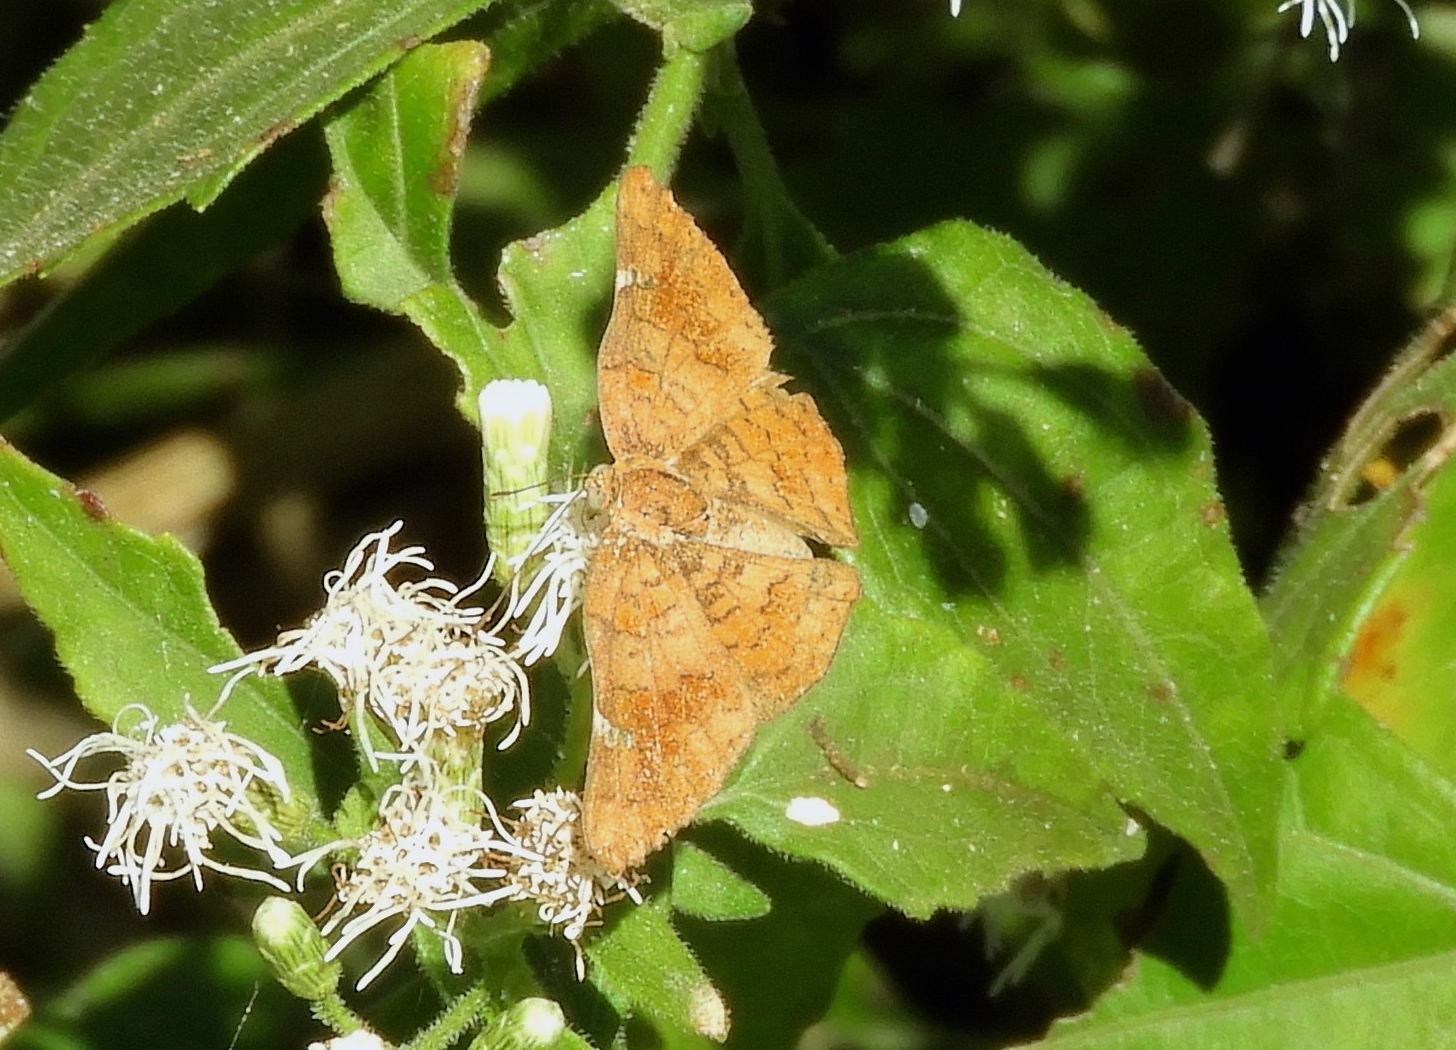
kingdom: Animalia
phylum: Arthropoda
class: Insecta
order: Lepidoptera
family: Riodinidae
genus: Curvie
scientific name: Curvie emesia
